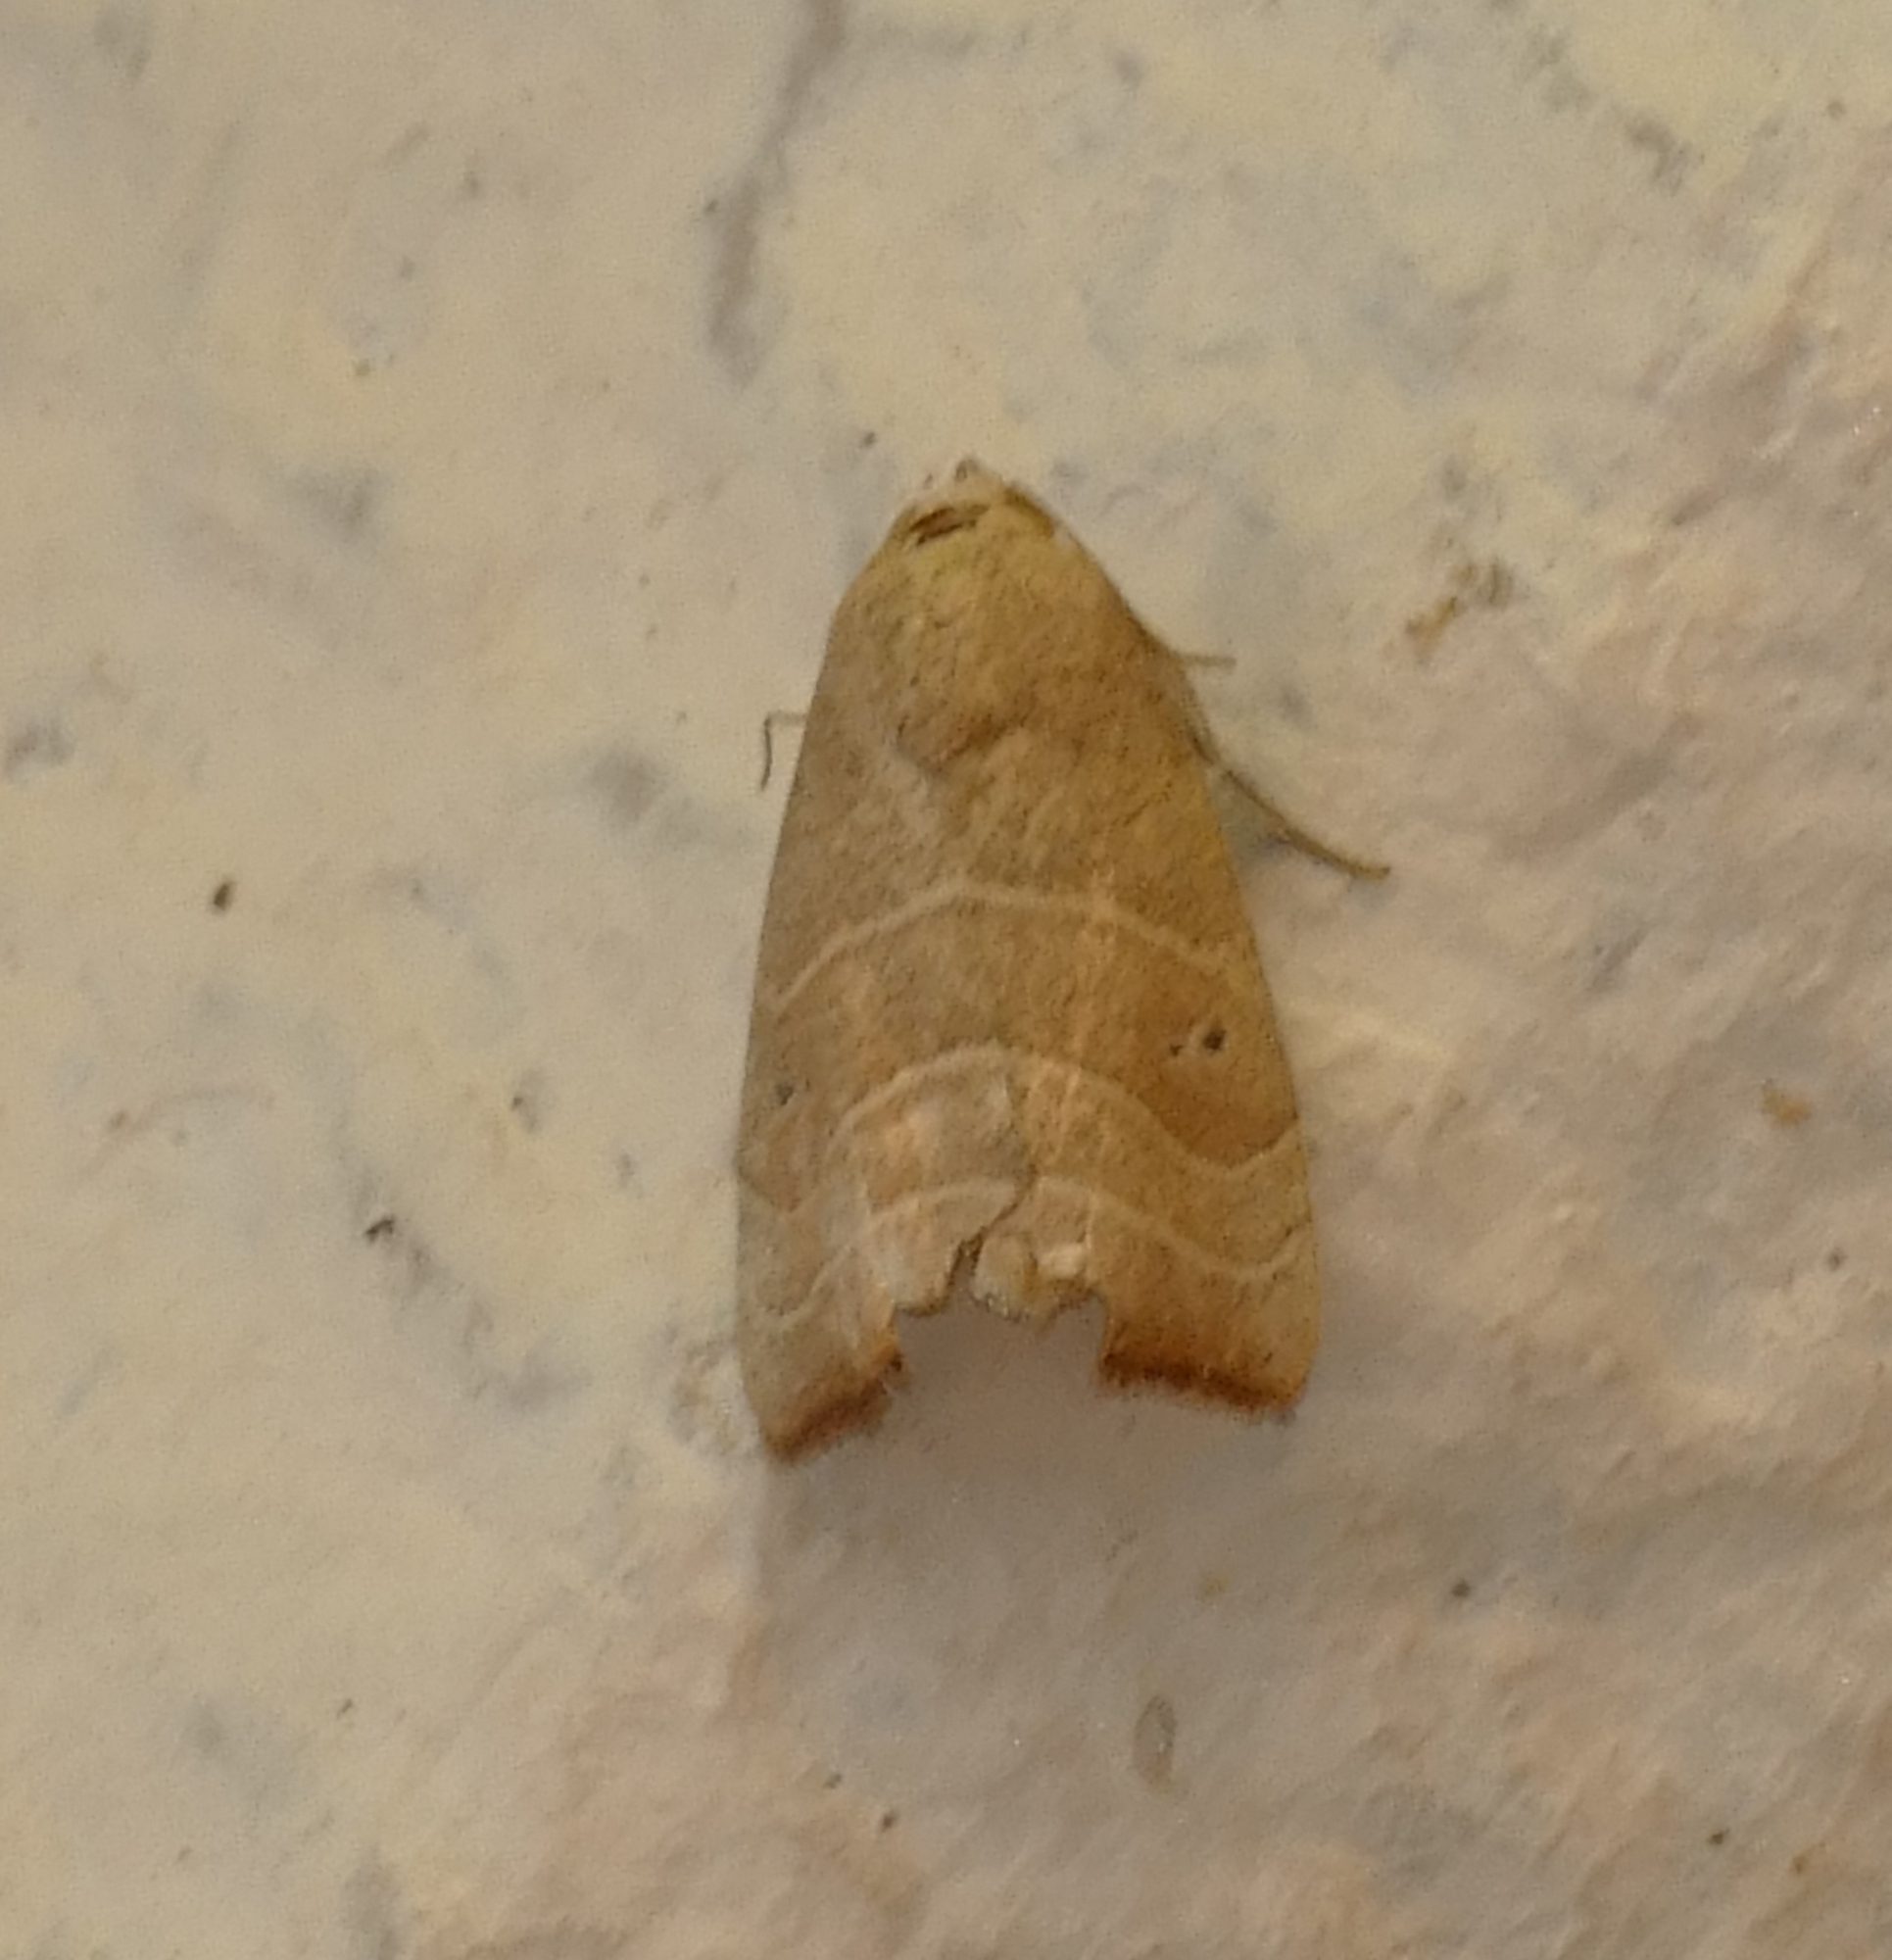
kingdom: Animalia
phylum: Arthropoda
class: Insecta
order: Lepidoptera
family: Noctuidae
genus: Bagisara
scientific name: Bagisara repanda
